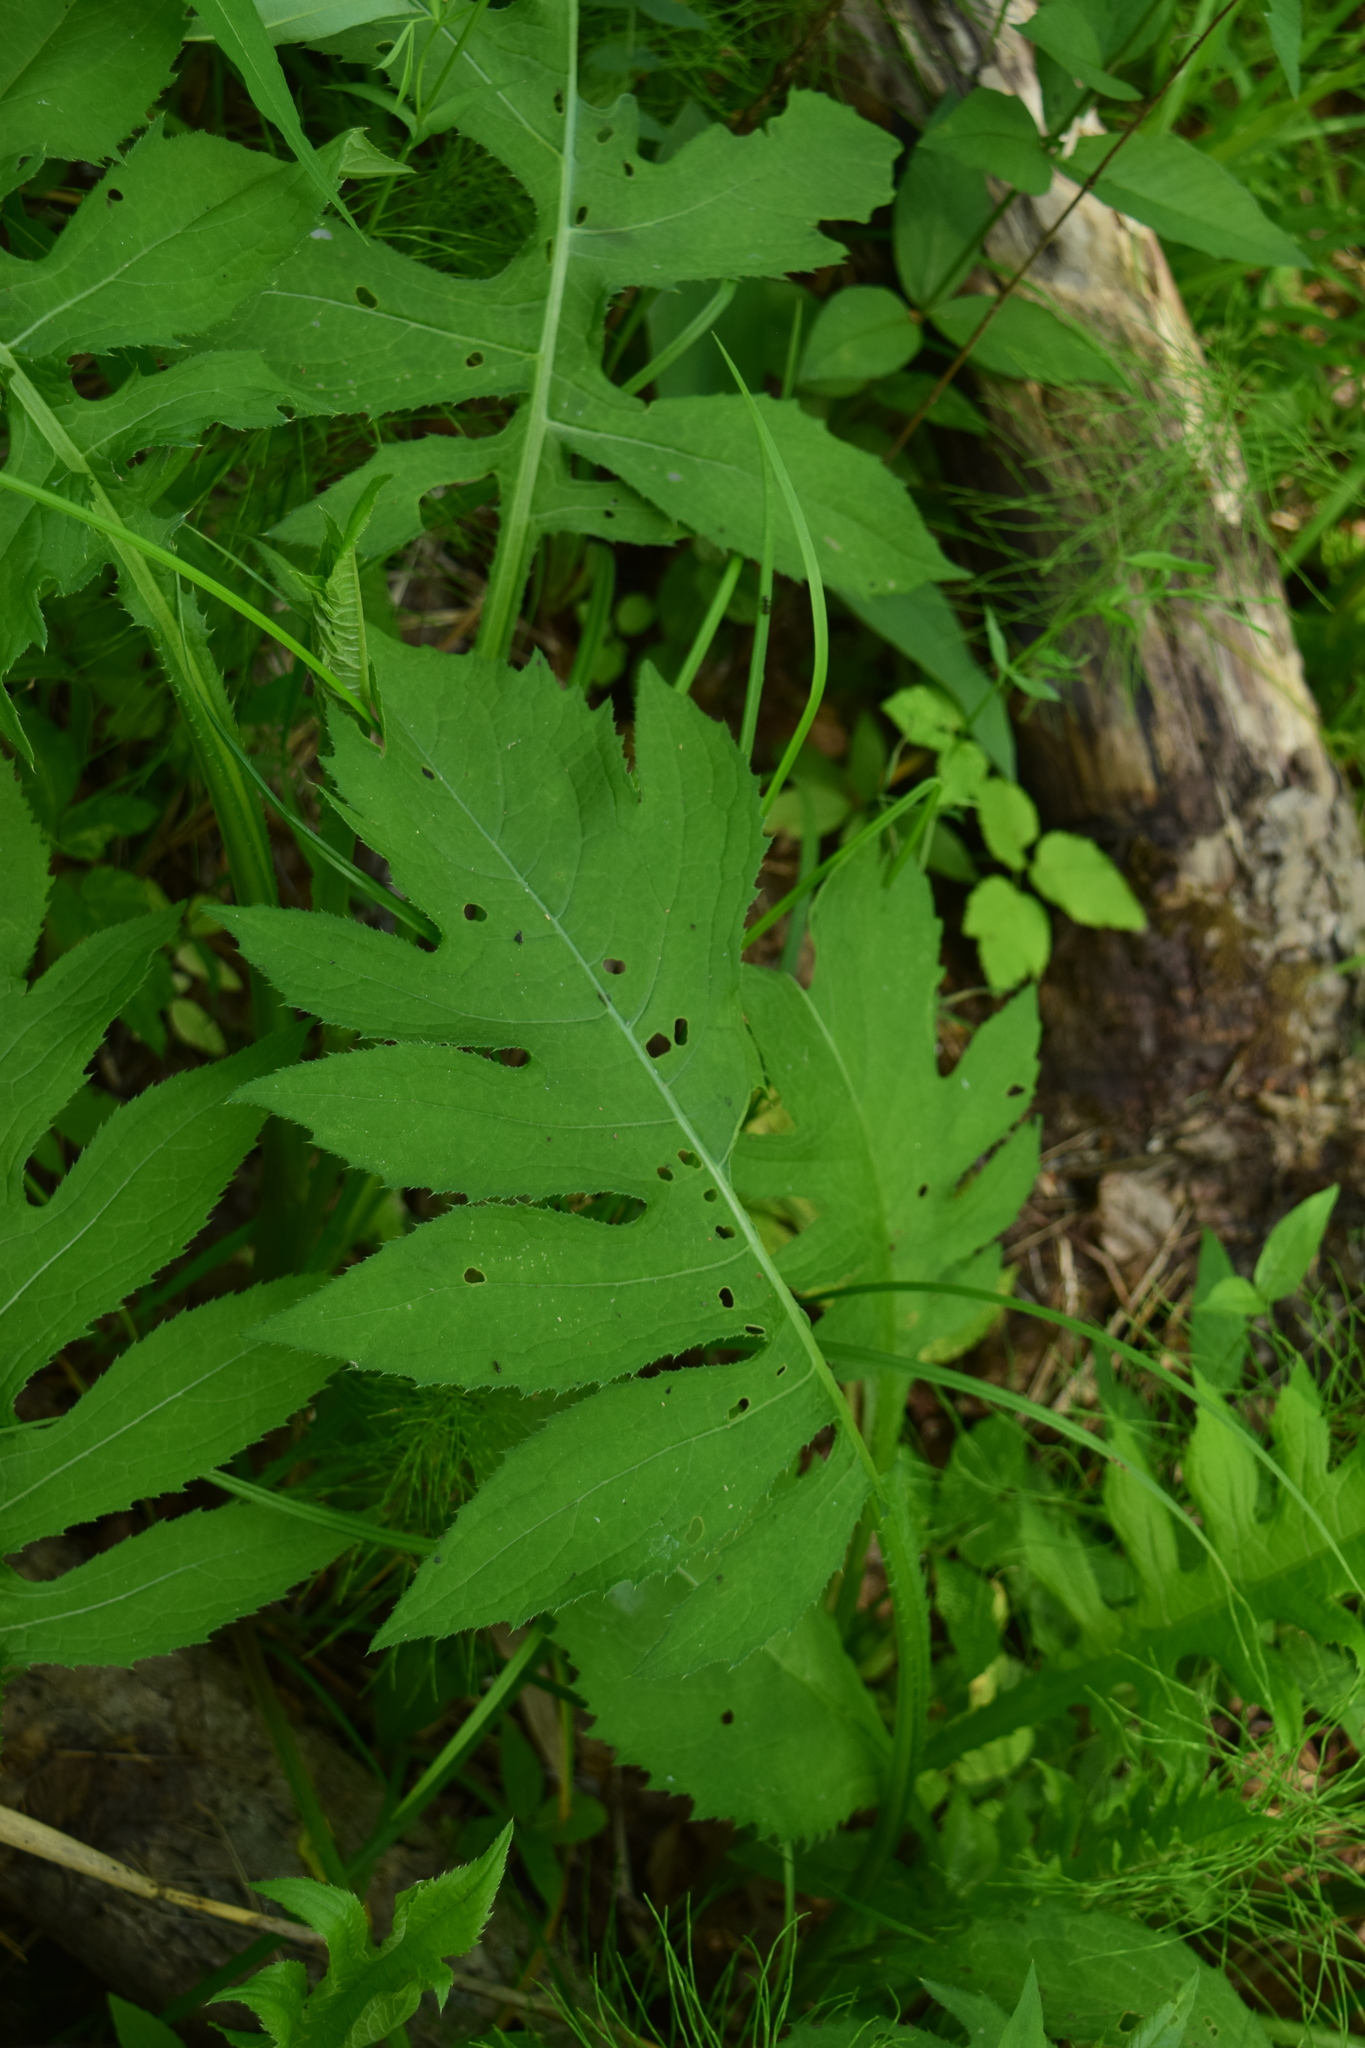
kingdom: Plantae
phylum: Tracheophyta
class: Magnoliopsida
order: Asterales
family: Asteraceae
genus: Cirsium
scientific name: Cirsium oleraceum
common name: Cabbage thistle
